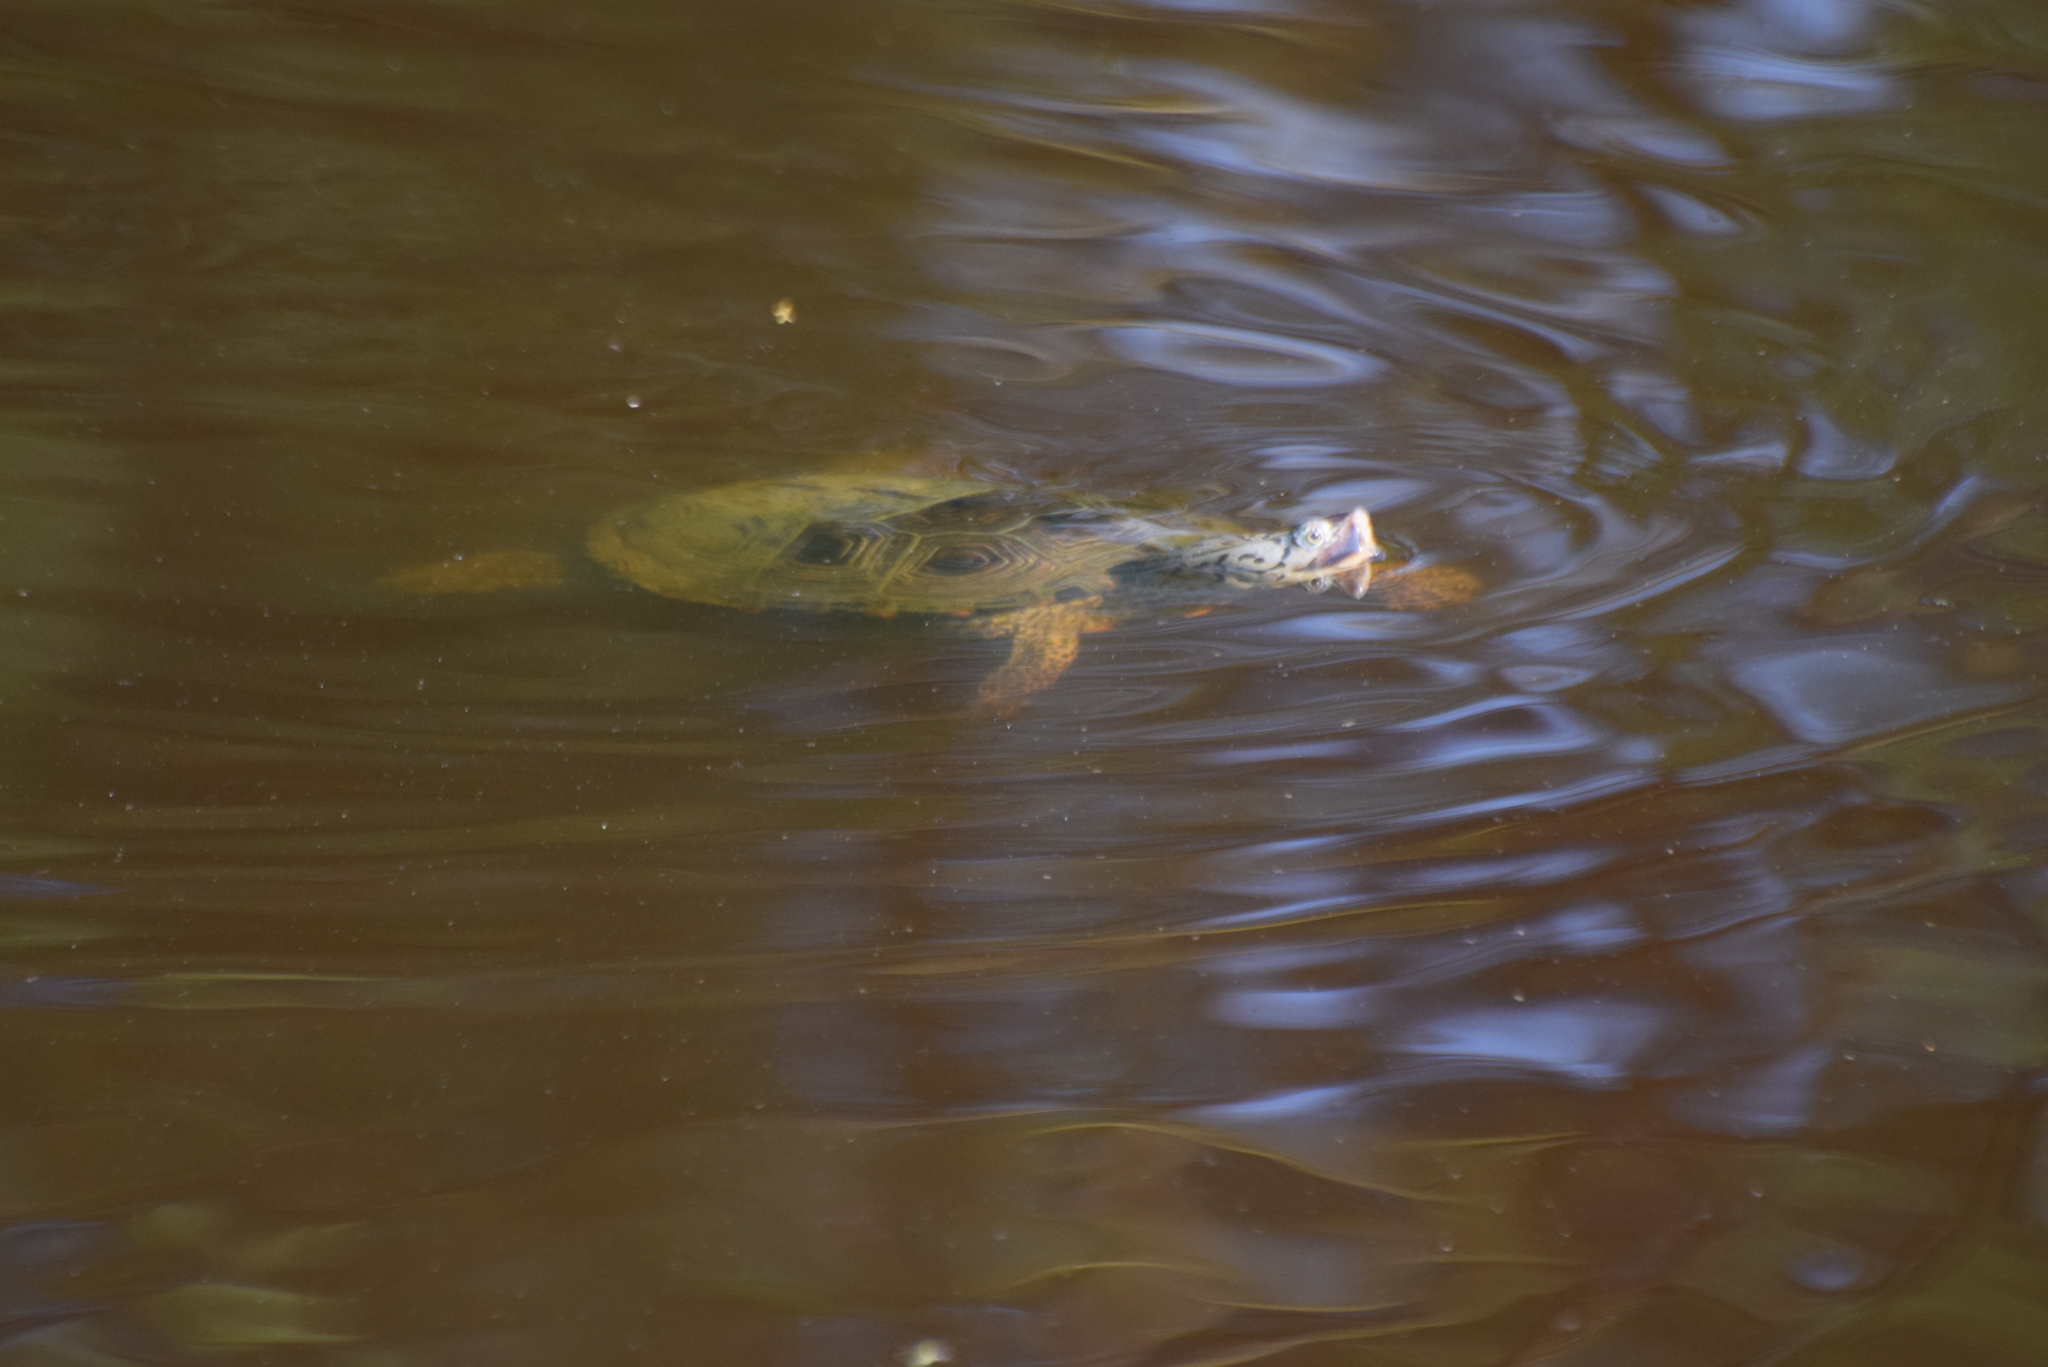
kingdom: Animalia
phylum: Chordata
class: Testudines
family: Emydidae
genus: Malaclemys
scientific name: Malaclemys terrapin
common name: Diamondback terrapin
